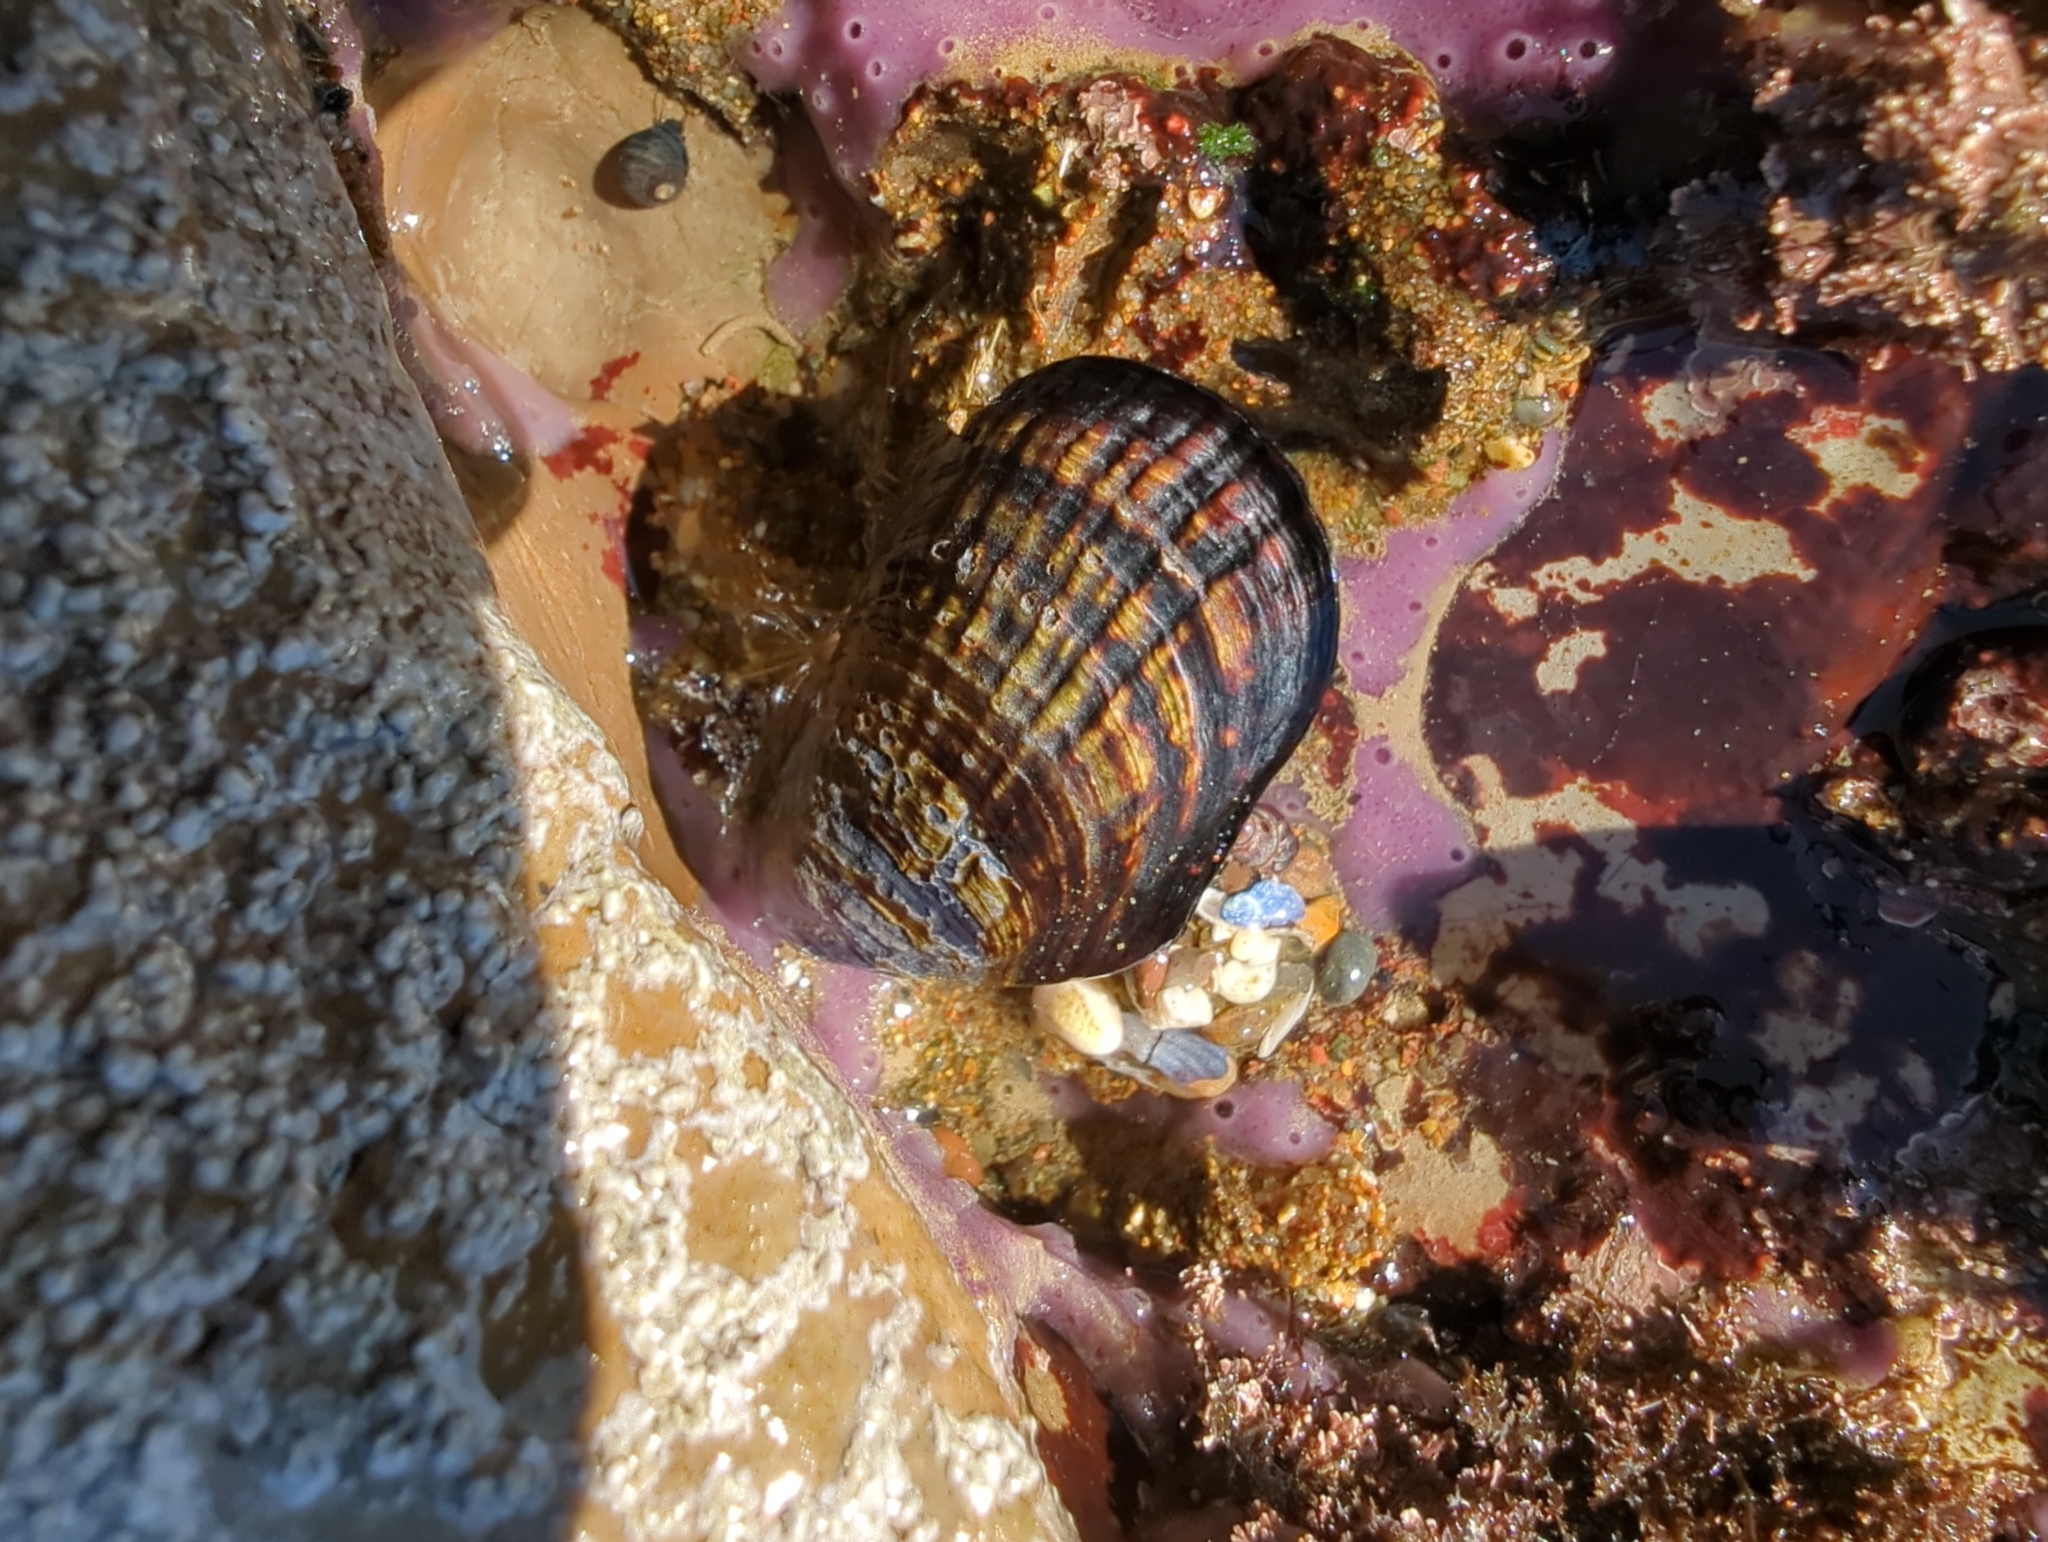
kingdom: Animalia
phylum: Mollusca
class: Bivalvia
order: Mytilida
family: Mytilidae
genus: Mytilus
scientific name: Mytilus californianus
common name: California mussel
